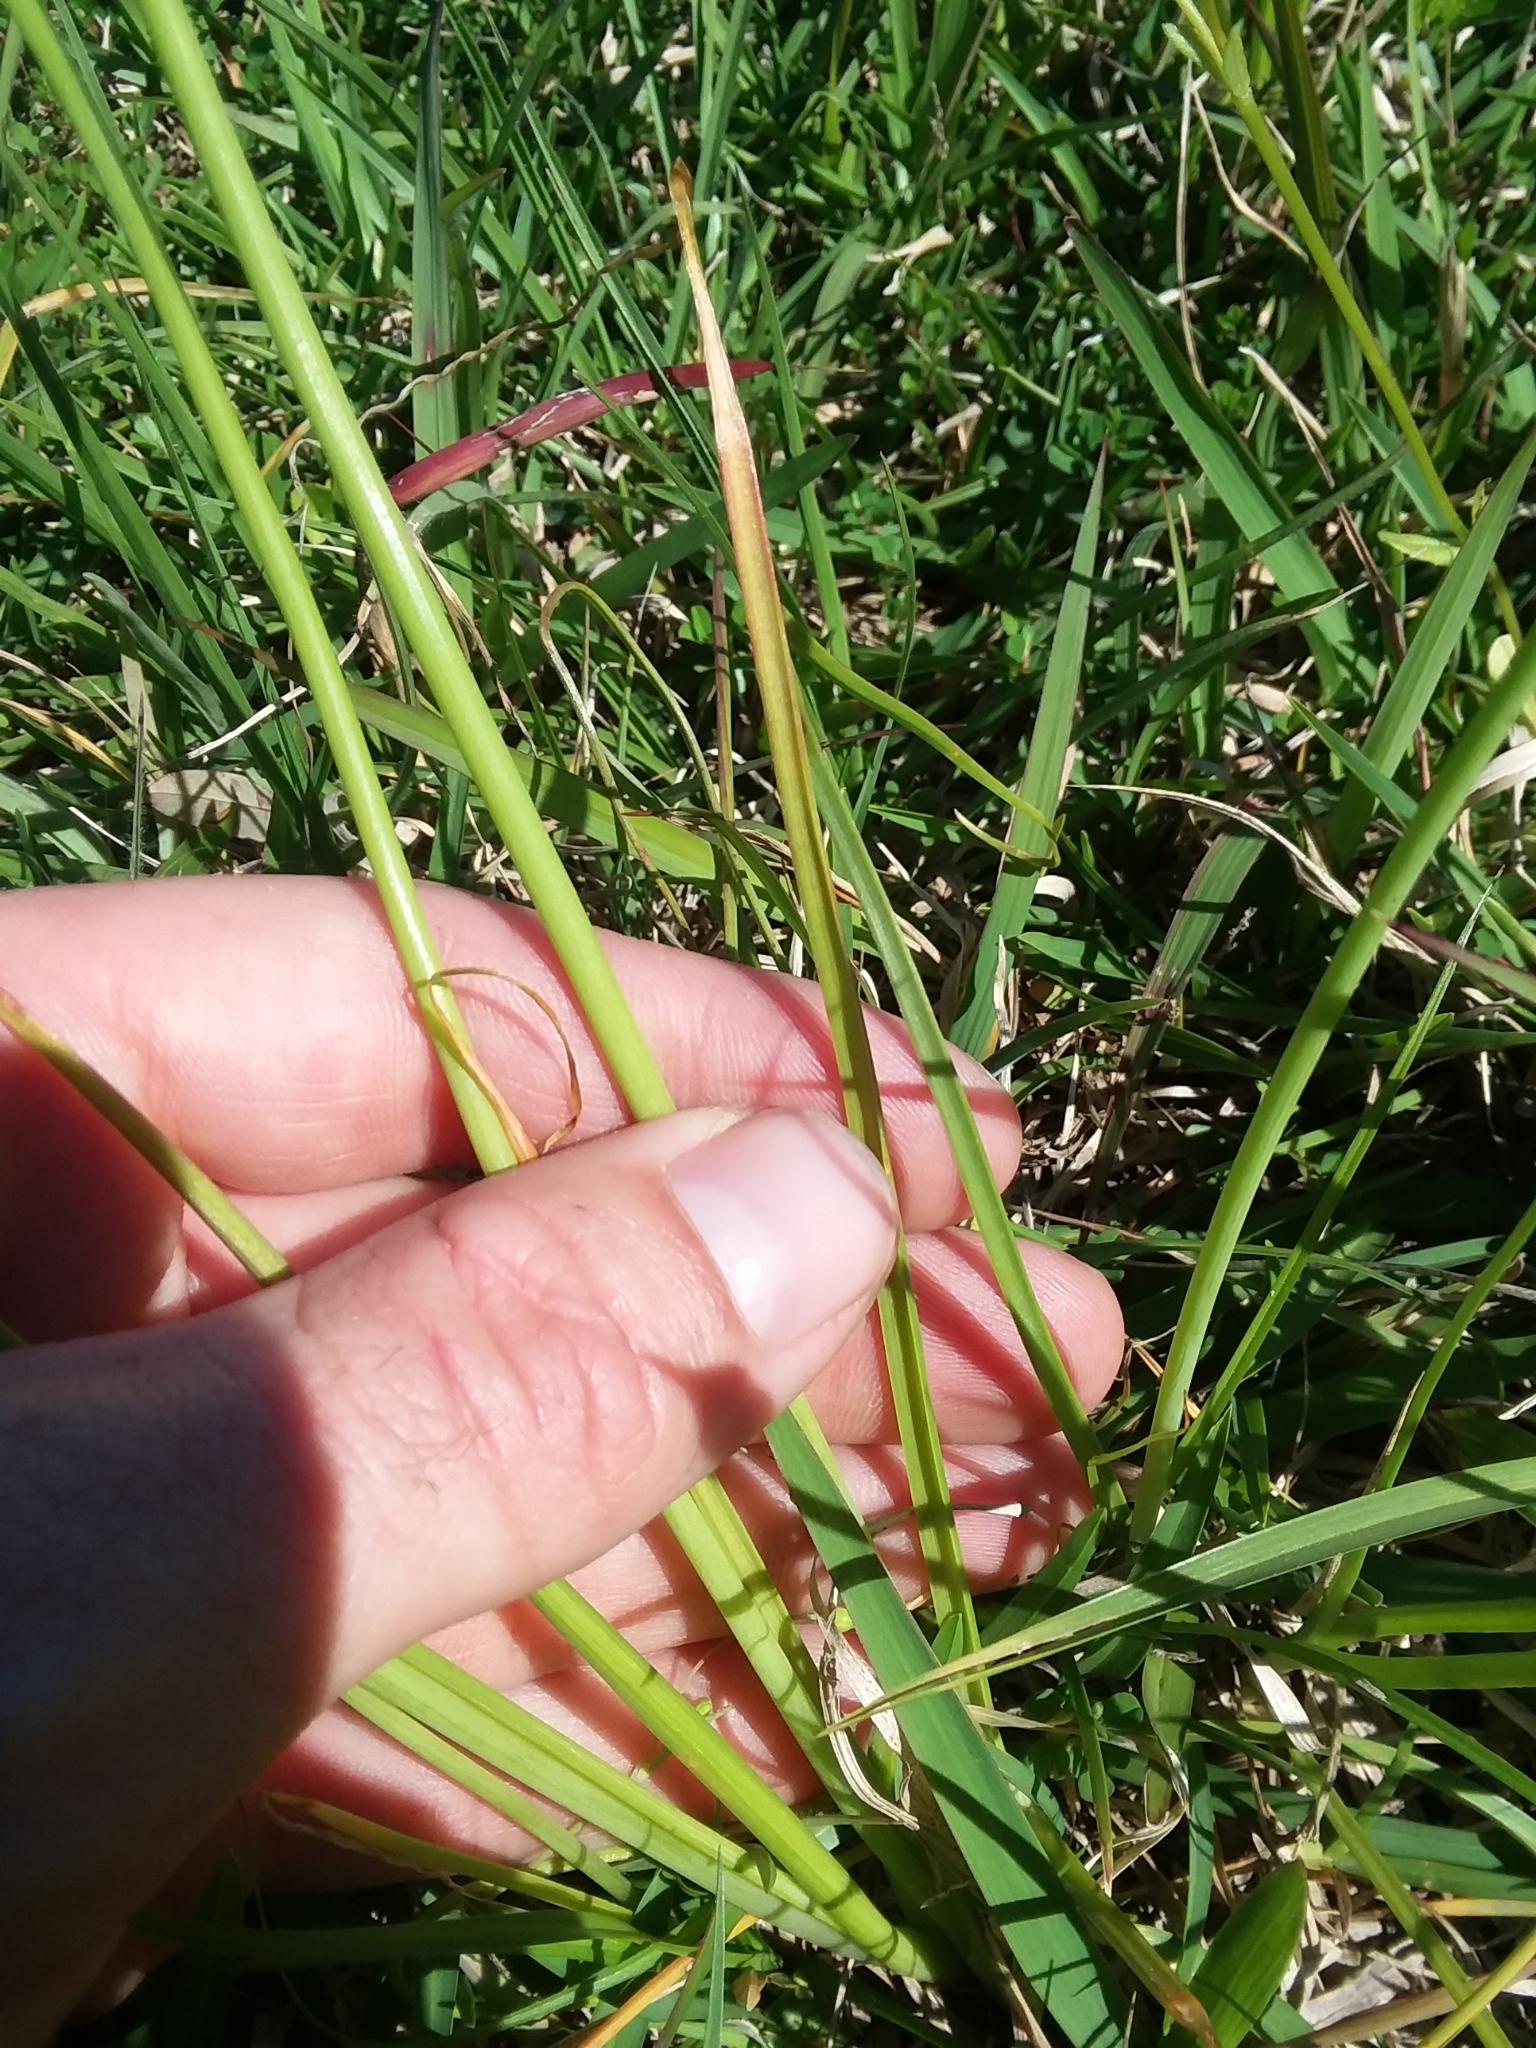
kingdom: Plantae
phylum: Tracheophyta
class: Liliopsida
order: Asparagales
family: Amaryllidaceae
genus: Allium
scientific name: Allium canadense
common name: Meadow garlic
